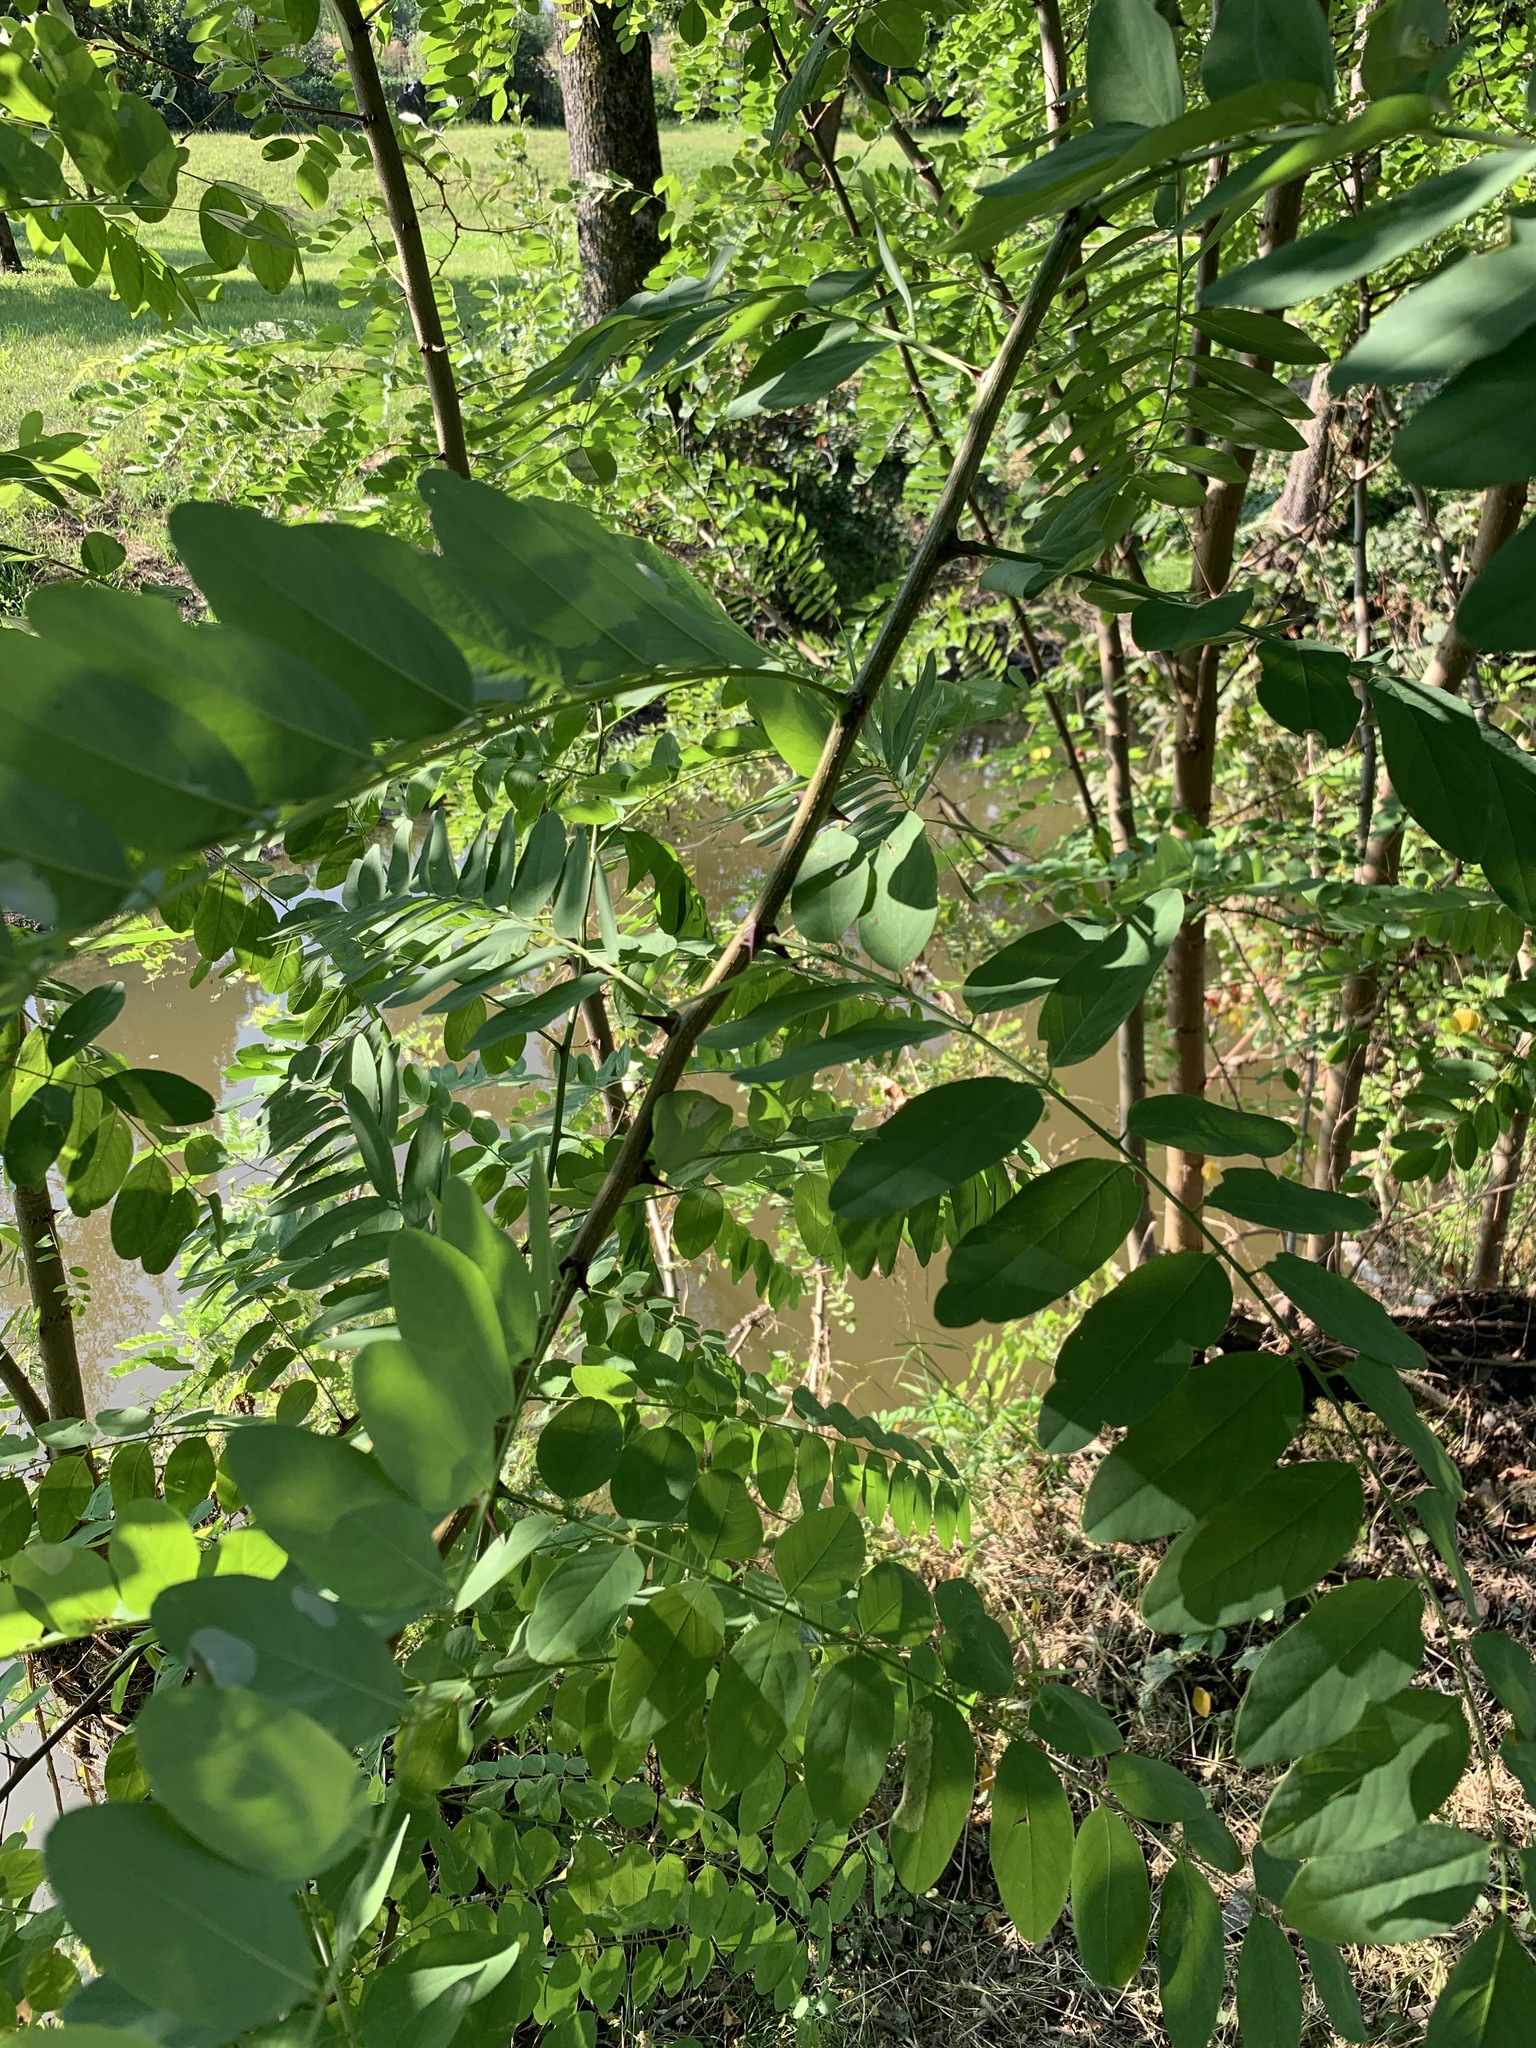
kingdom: Plantae
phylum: Tracheophyta
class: Magnoliopsida
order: Fabales
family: Fabaceae
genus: Robinia
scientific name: Robinia pseudoacacia
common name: Black locust
